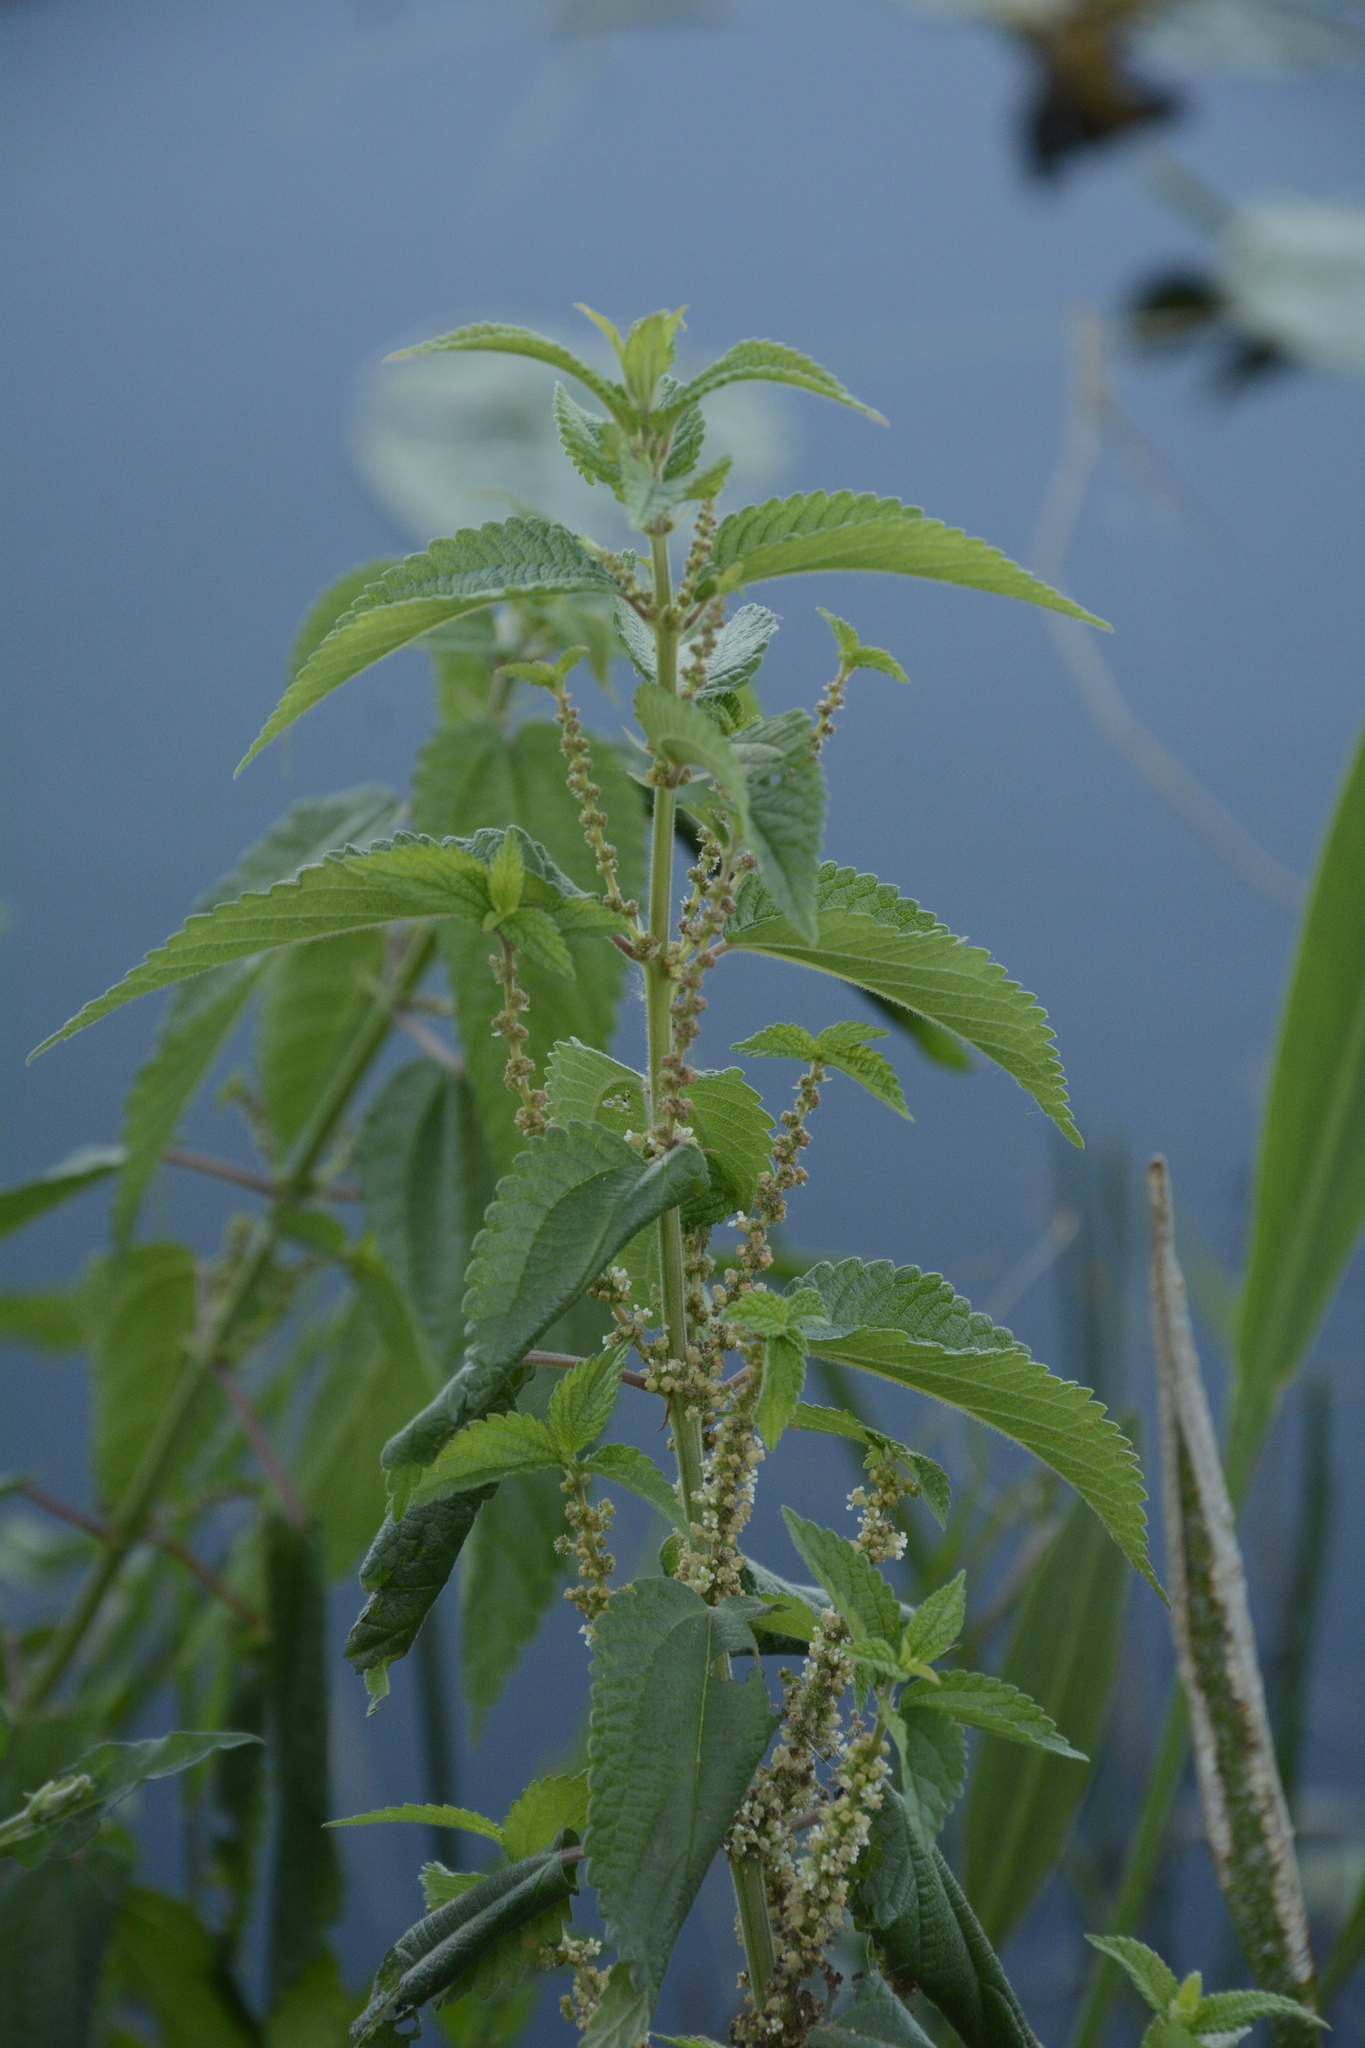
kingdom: Plantae
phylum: Tracheophyta
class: Magnoliopsida
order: Rosales
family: Urticaceae
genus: Boehmeria
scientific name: Boehmeria cylindrica
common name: Bog-hemp
